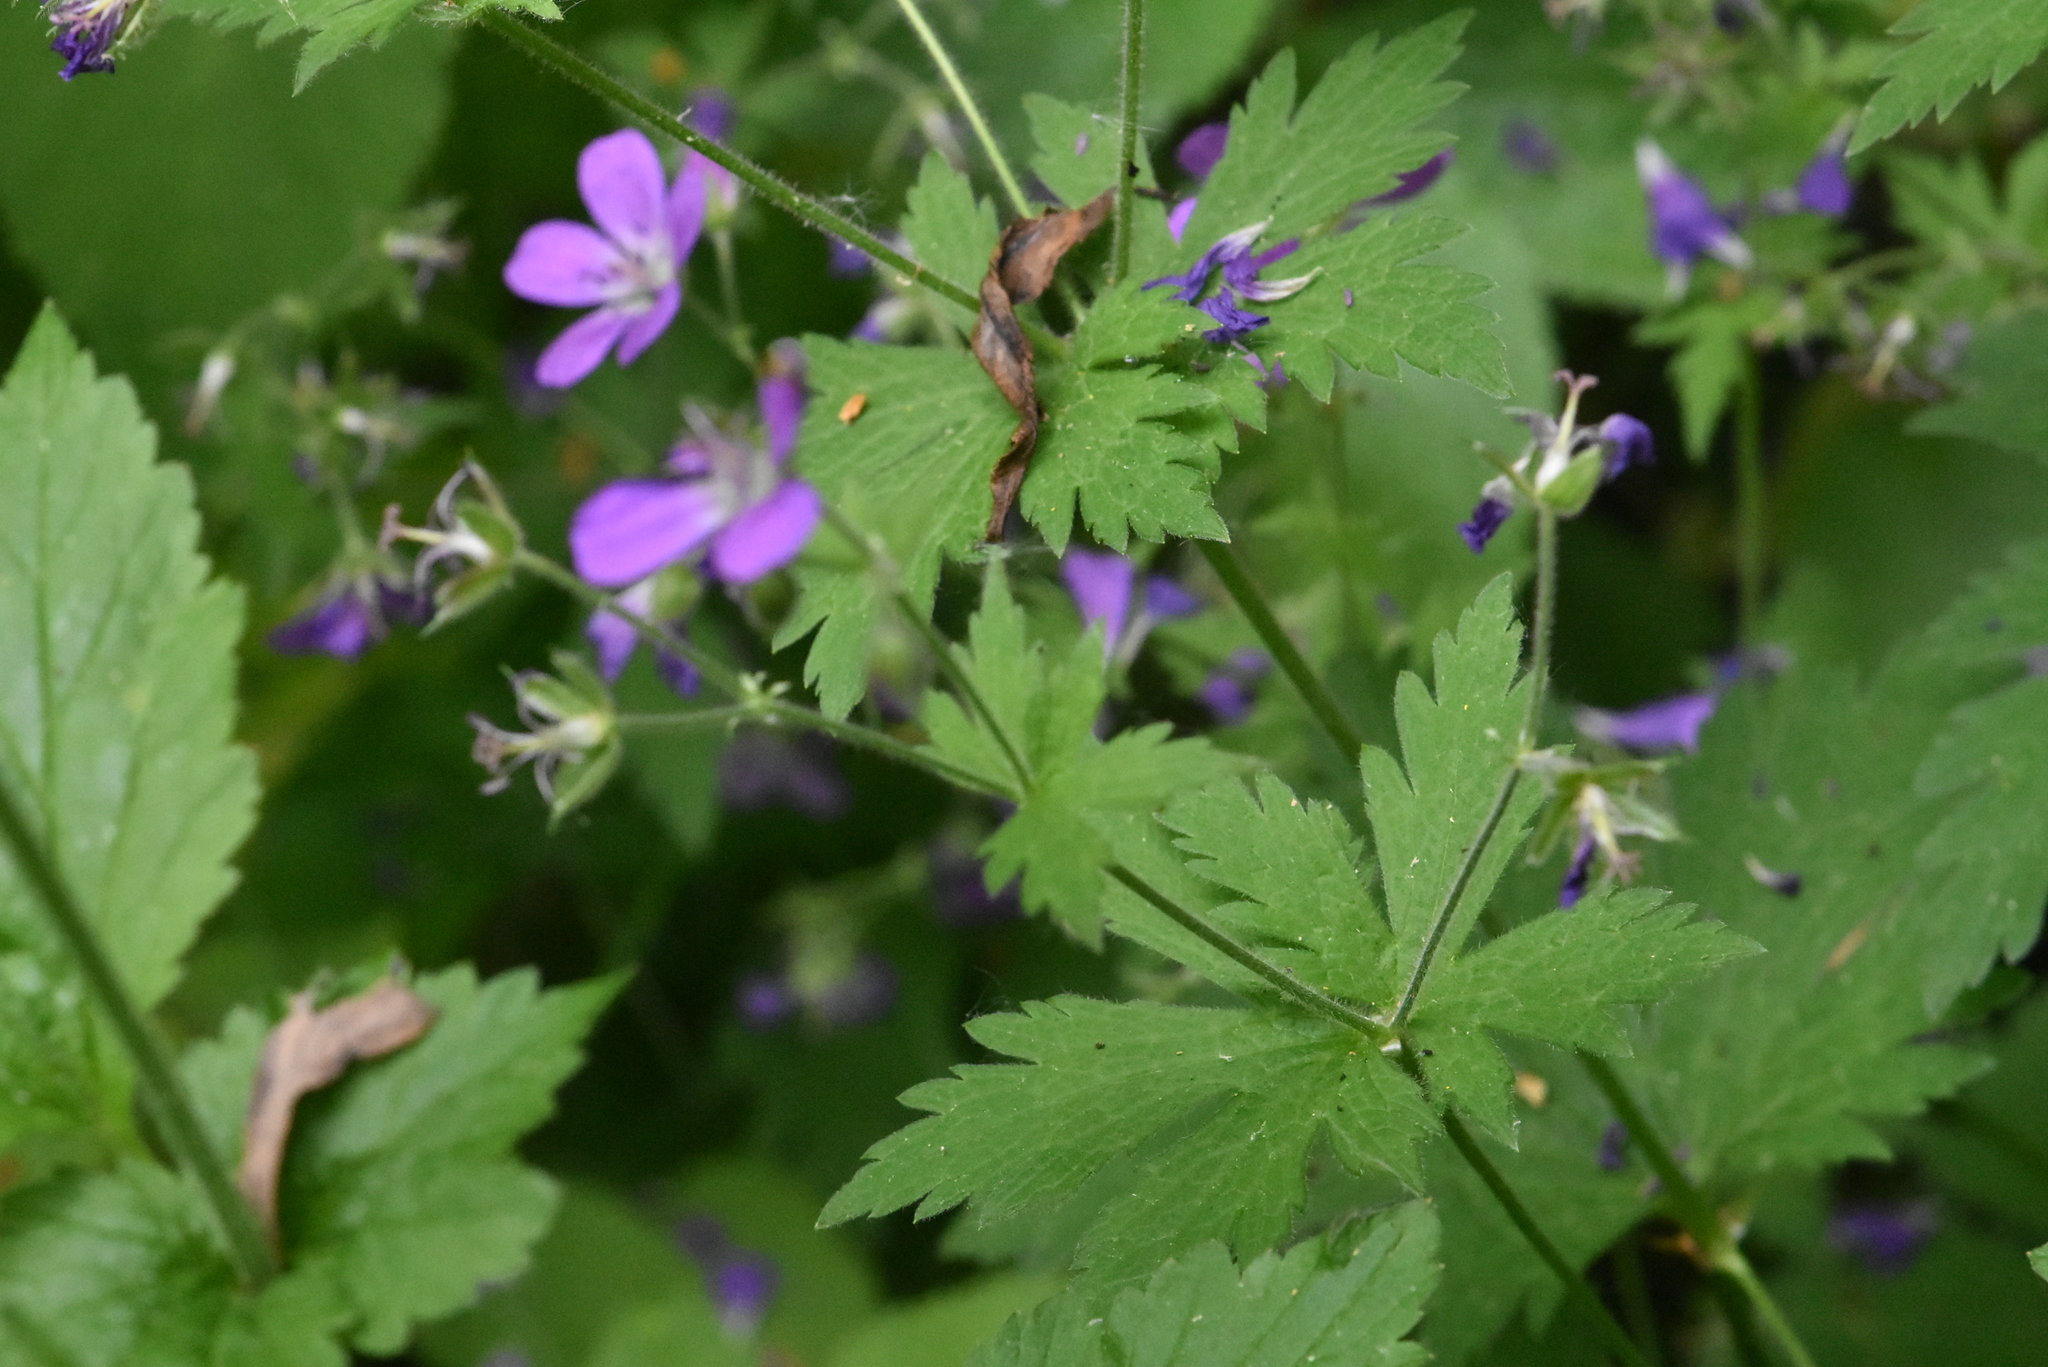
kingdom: Plantae
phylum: Tracheophyta
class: Magnoliopsida
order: Geraniales
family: Geraniaceae
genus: Geranium
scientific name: Geranium sylvaticum
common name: Wood crane's-bill
